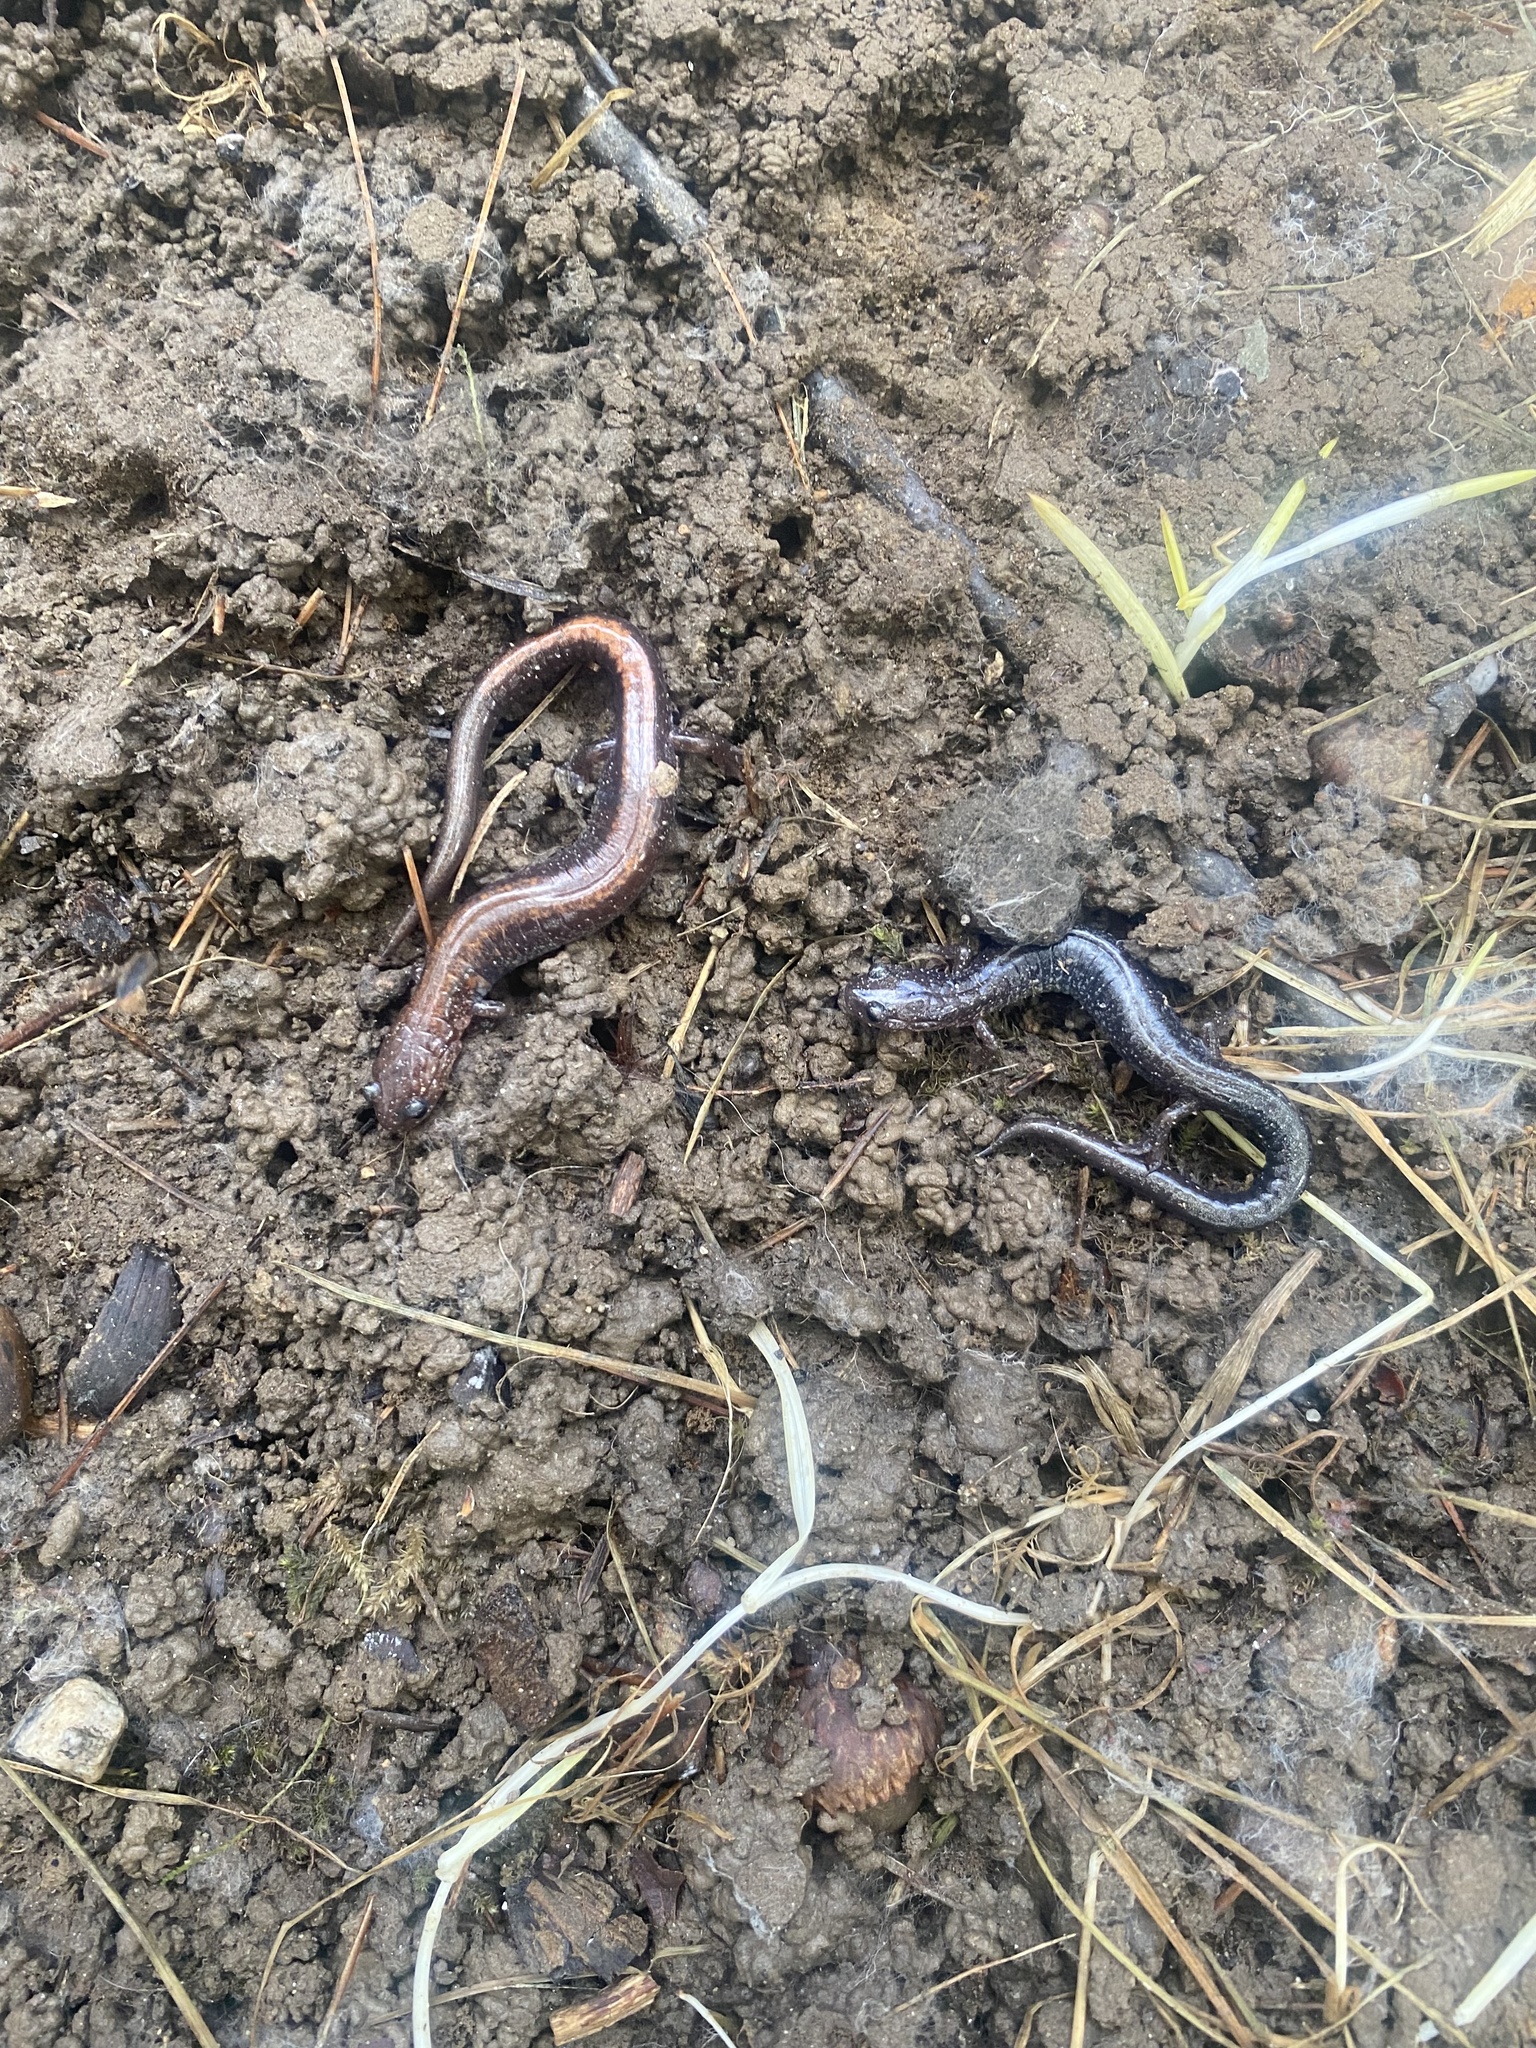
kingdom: Animalia
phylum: Chordata
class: Amphibia
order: Caudata
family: Plethodontidae
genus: Plethodon
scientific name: Plethodon cinereus
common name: Redback salamander
